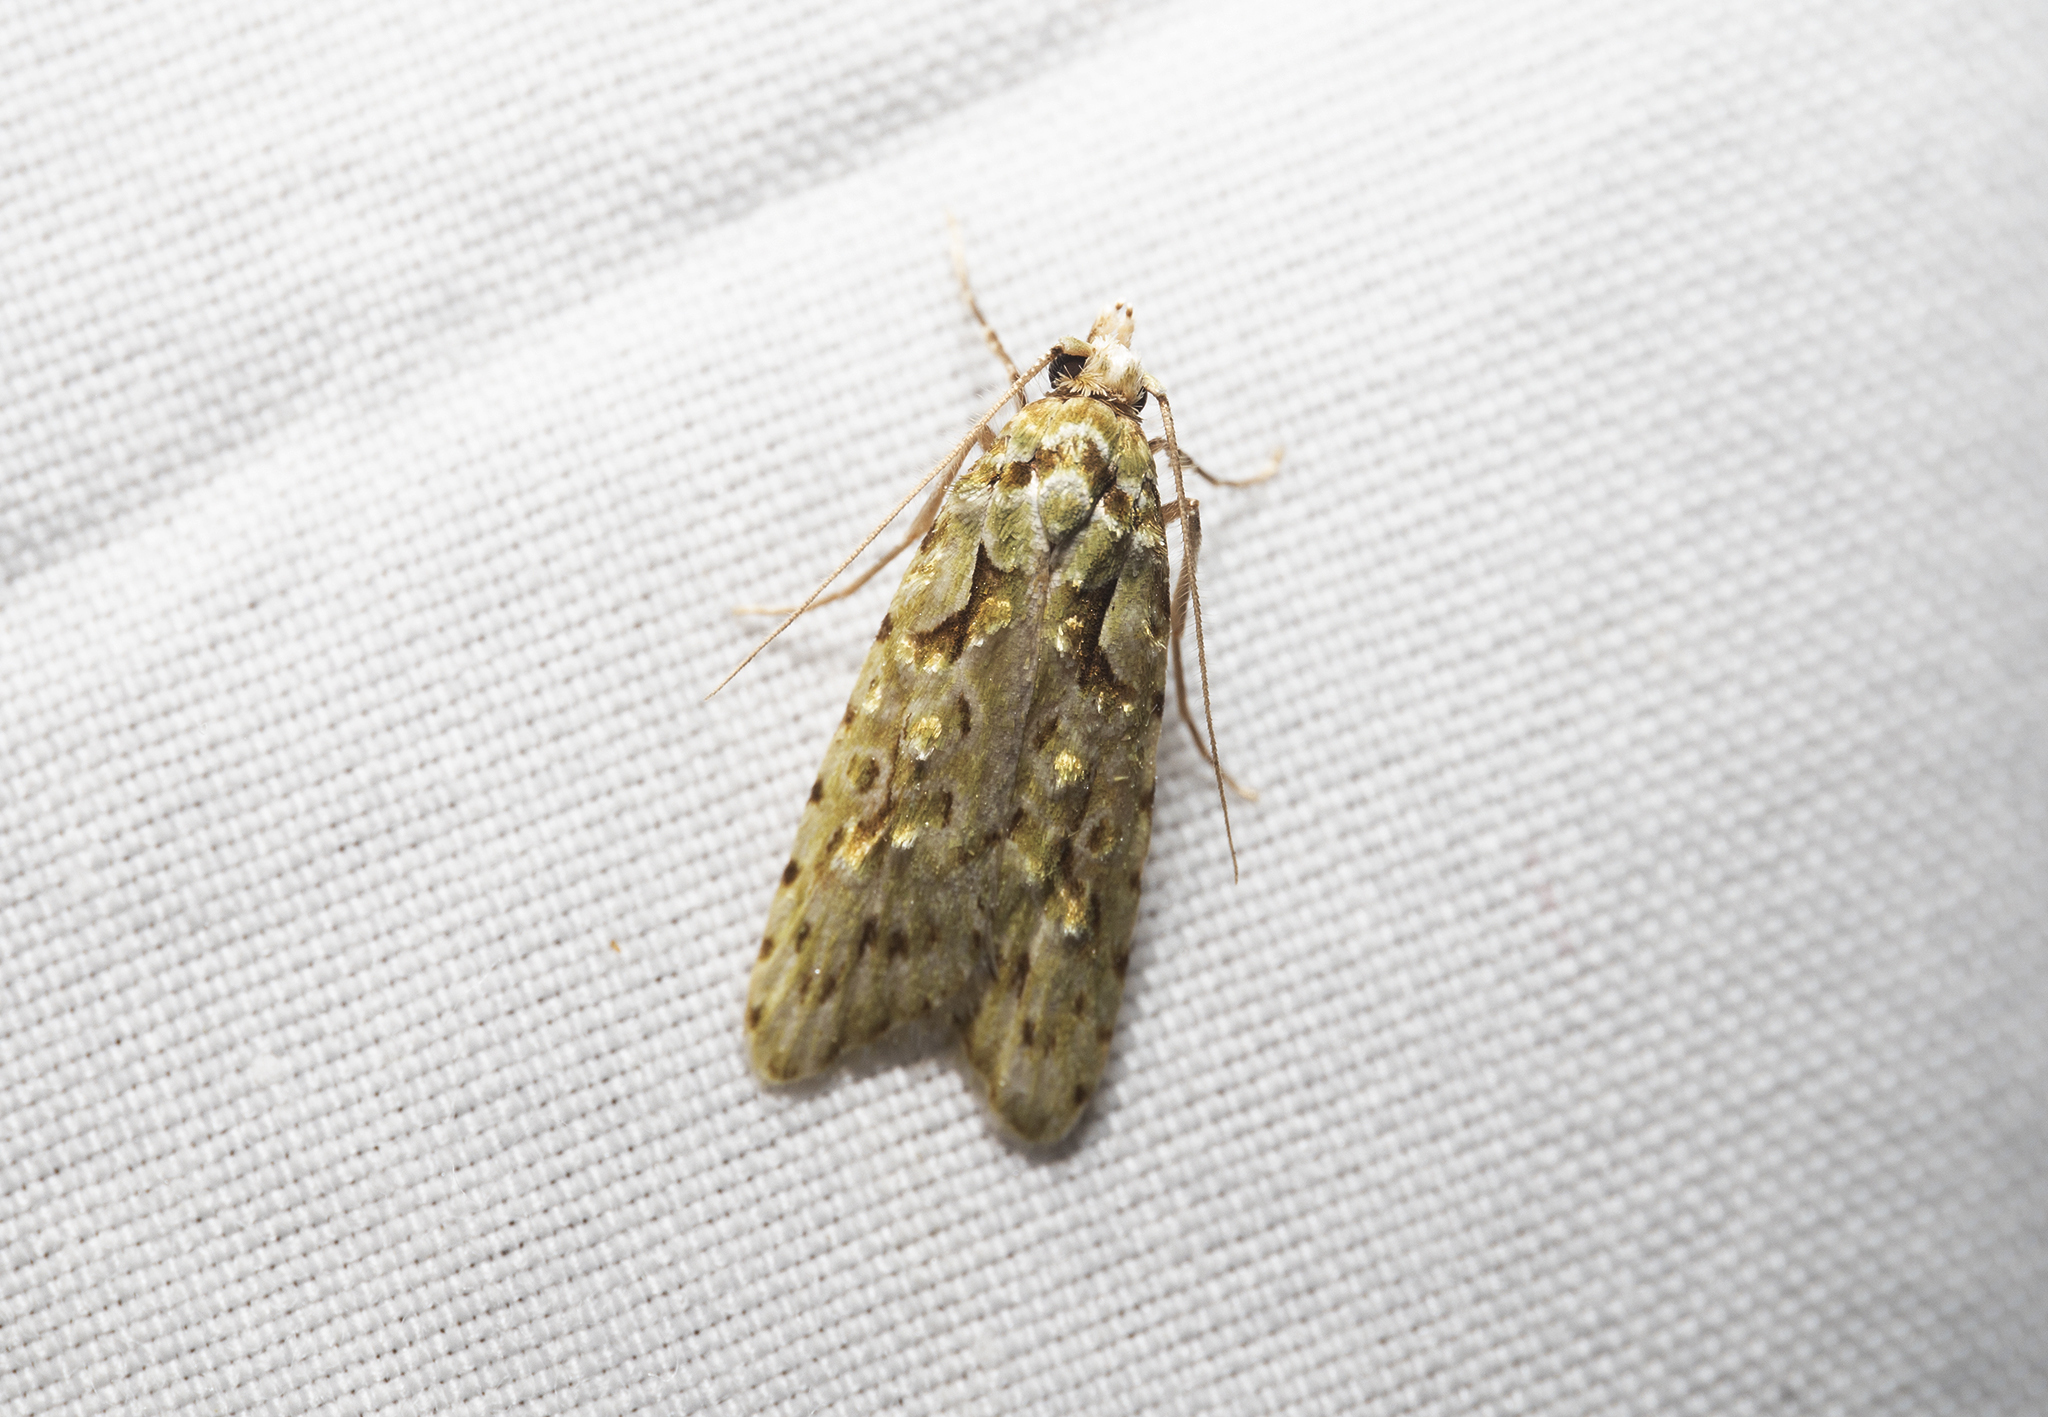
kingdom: Animalia
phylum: Arthropoda
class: Insecta
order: Lepidoptera
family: Carposinidae
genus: Carposina
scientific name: Carposina Heterocrossa eriphylla
